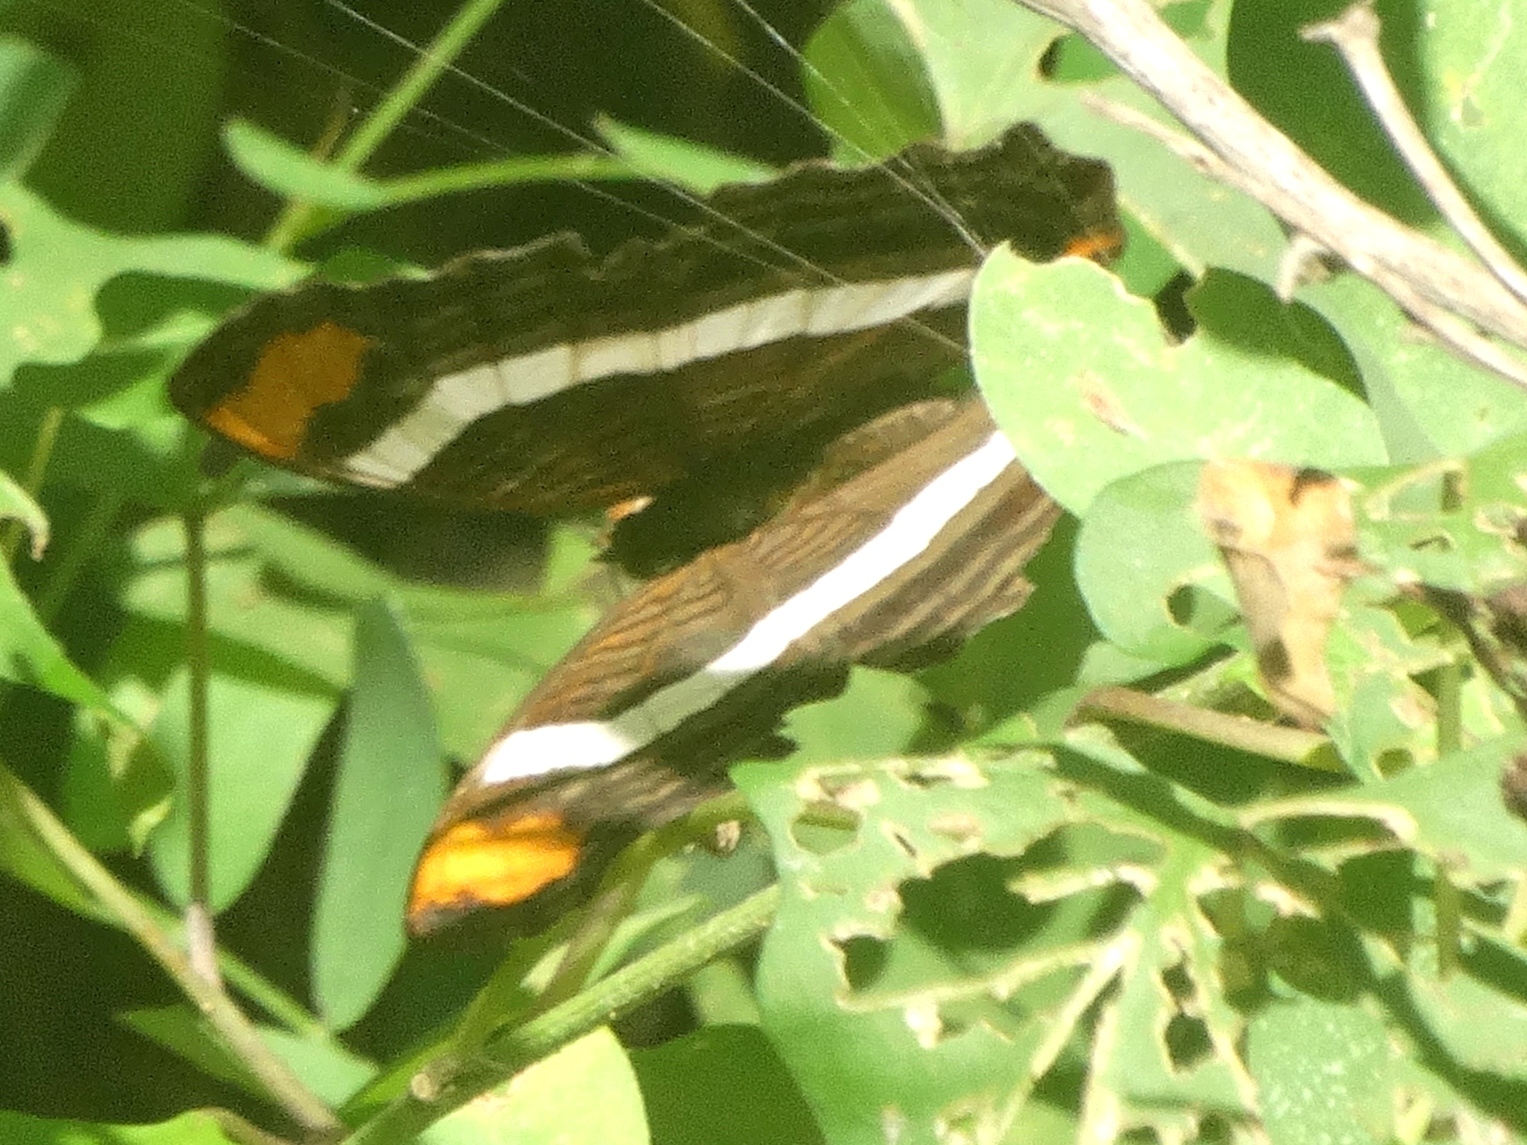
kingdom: Animalia
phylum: Arthropoda
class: Insecta
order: Lepidoptera
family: Nymphalidae
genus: Limenitis
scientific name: Limenitis fessonia
